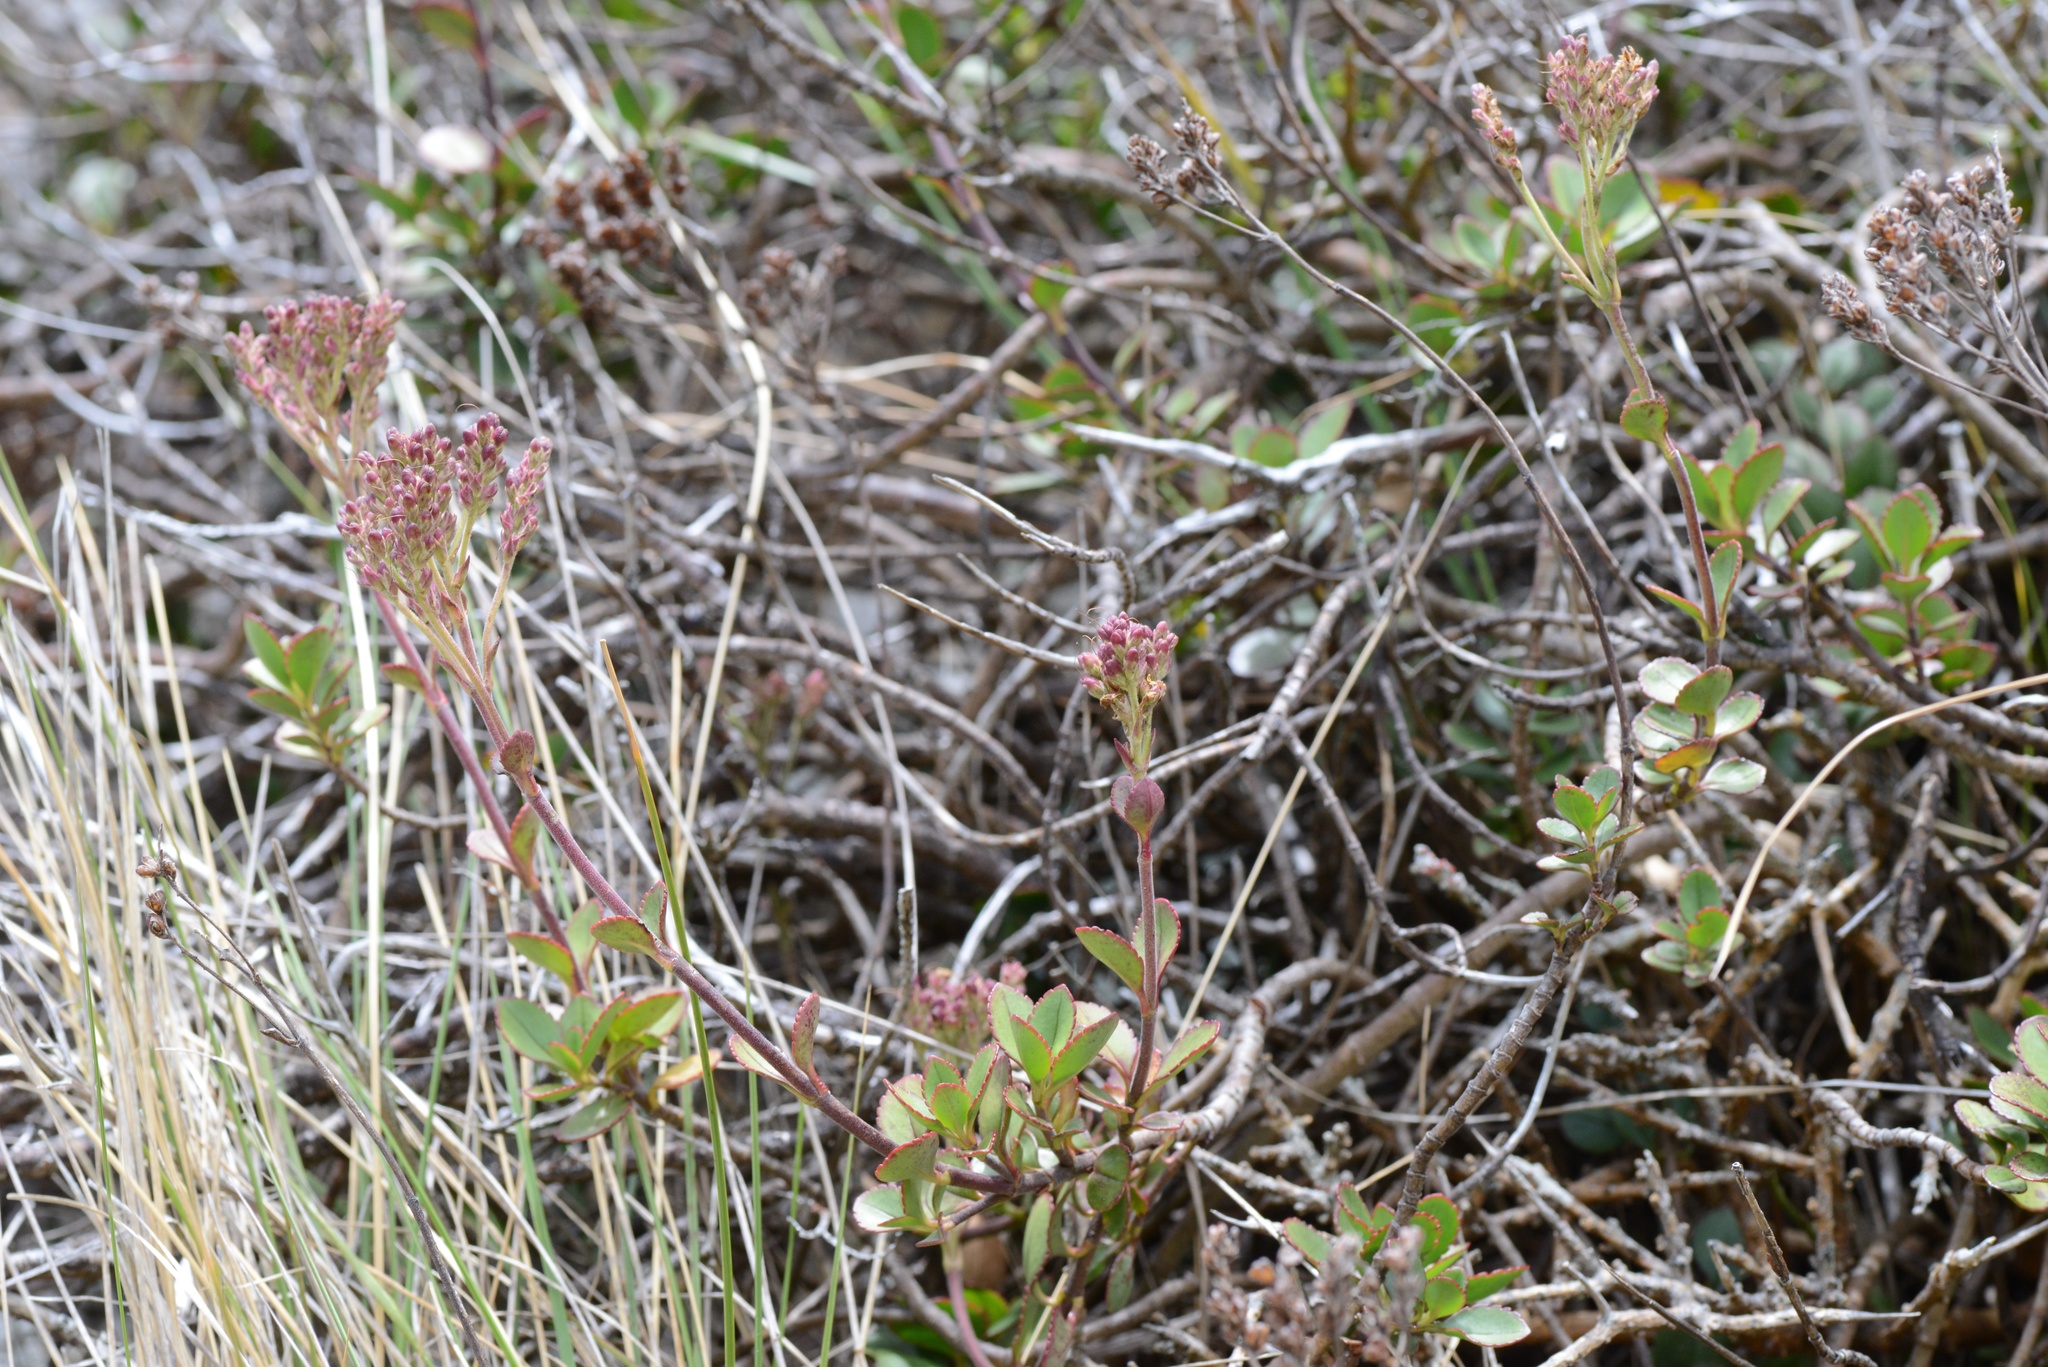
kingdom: Plantae
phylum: Tracheophyta
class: Magnoliopsida
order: Lamiales
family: Plantaginaceae
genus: Veronica
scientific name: Veronica lavaudiana
